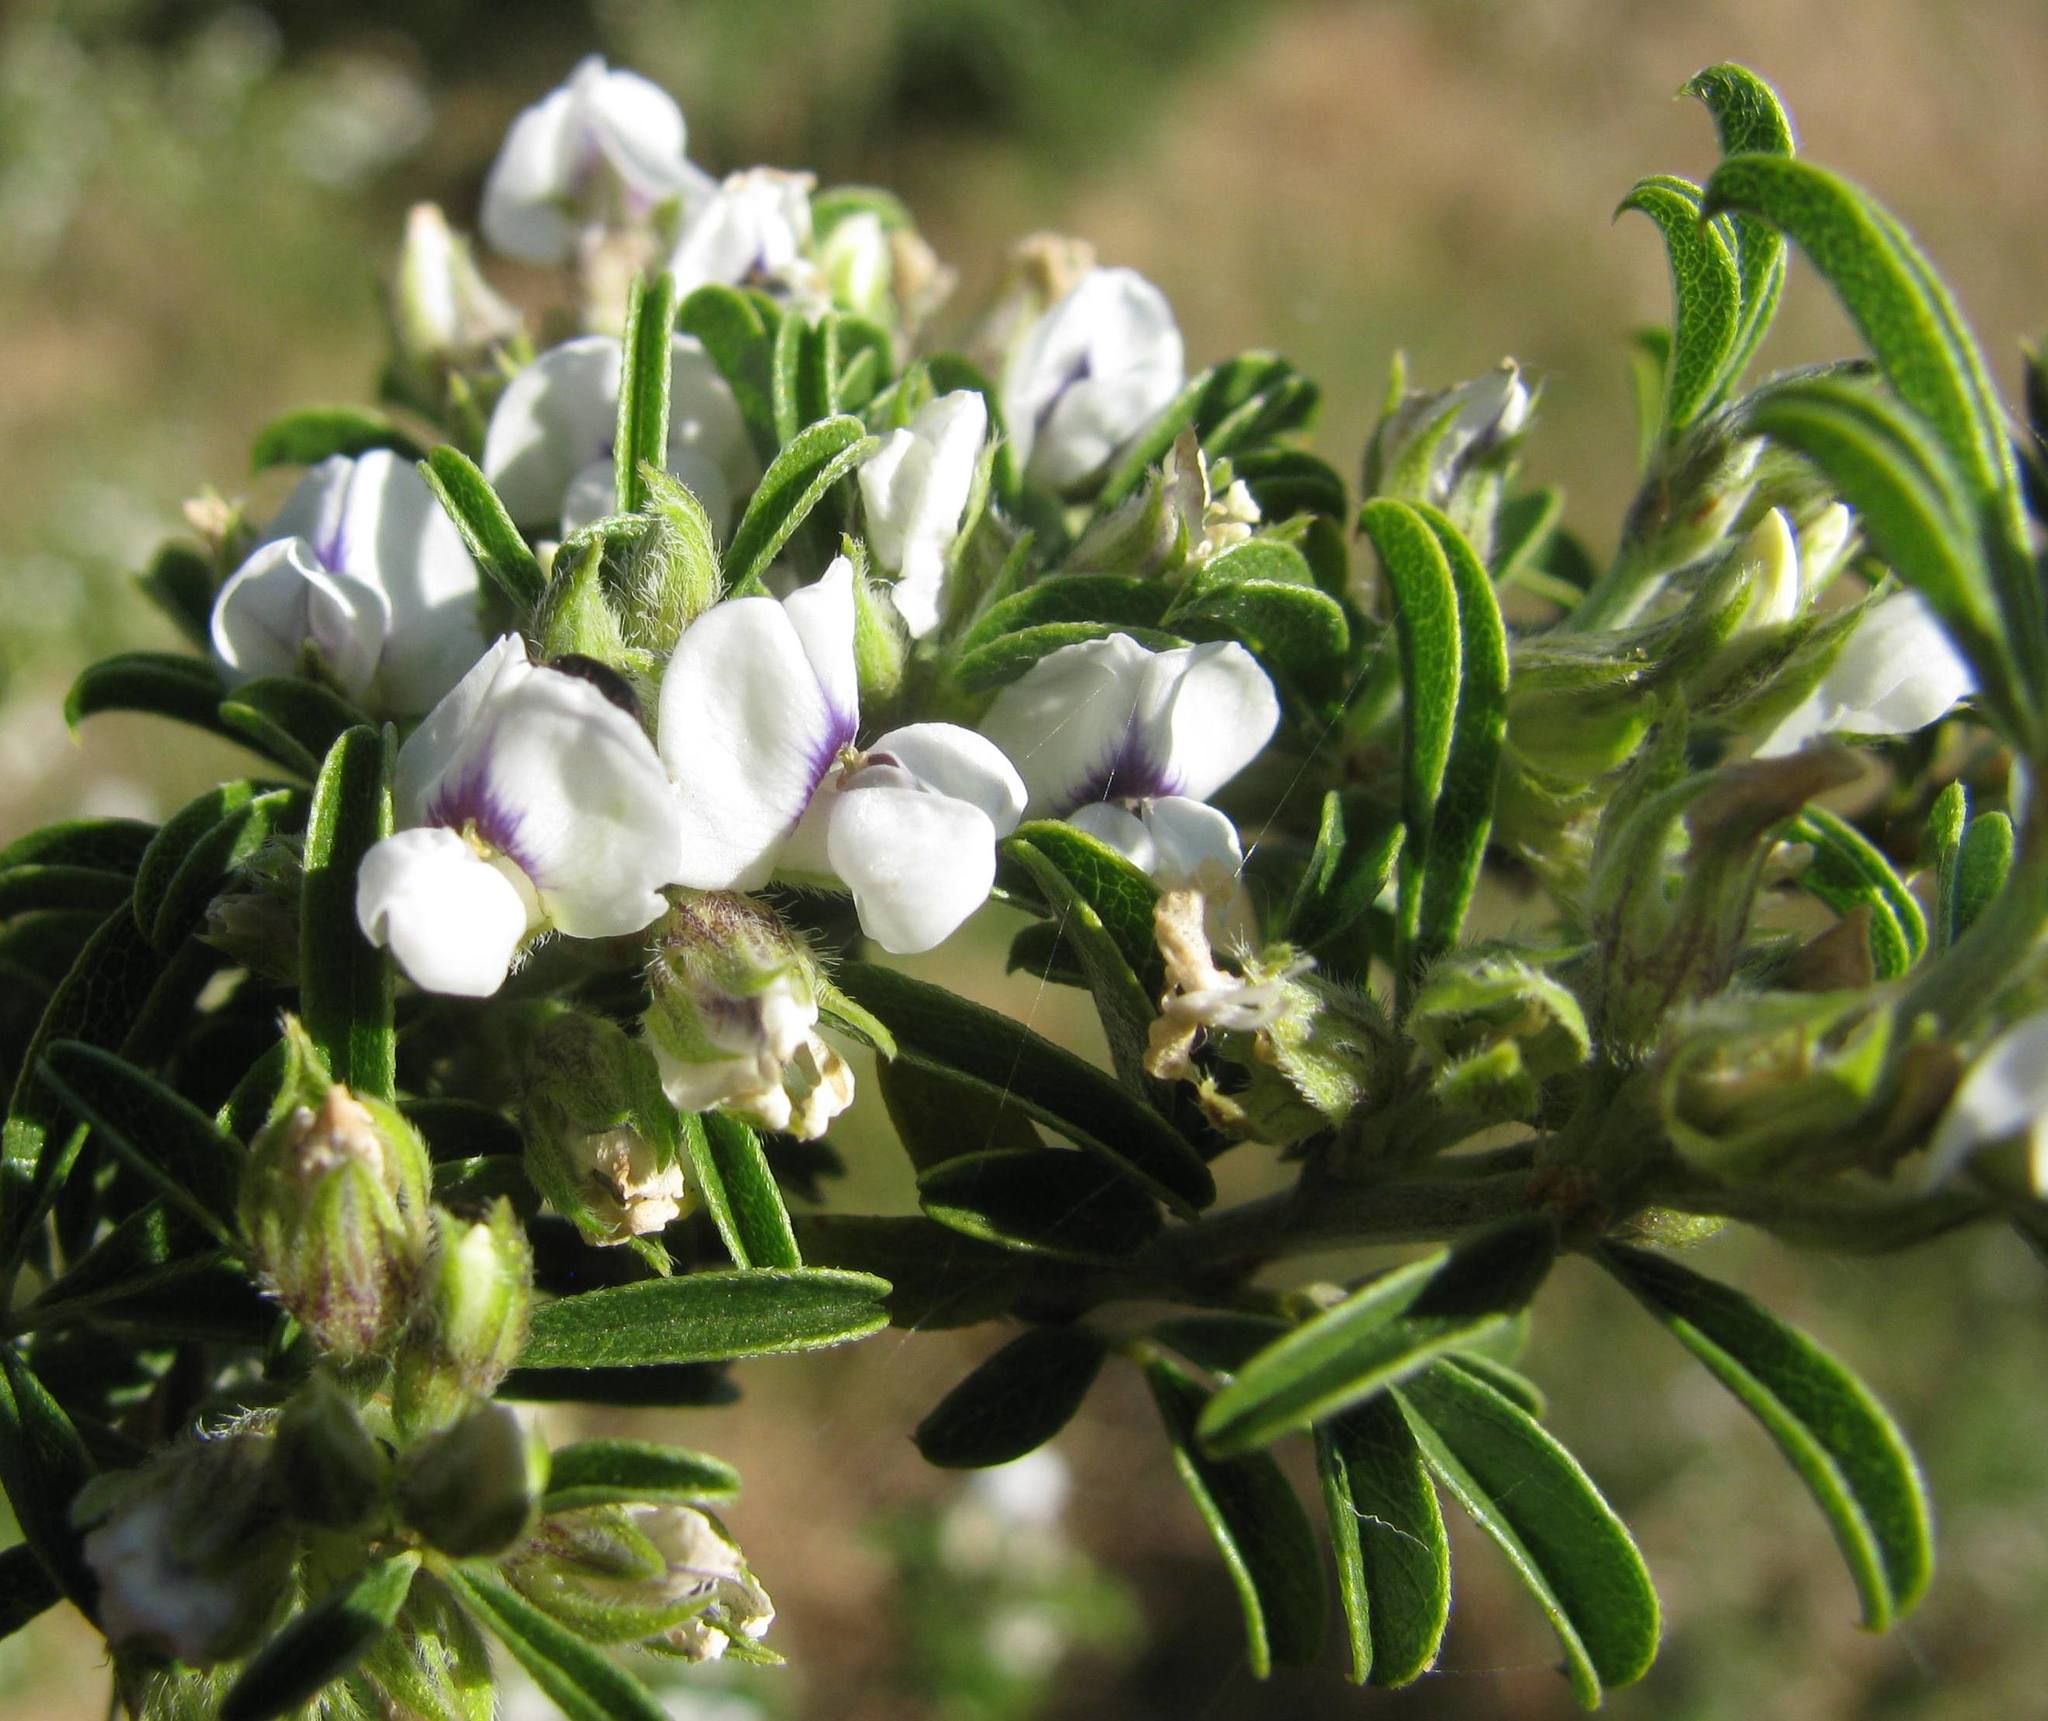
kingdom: Plantae
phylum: Tracheophyta
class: Magnoliopsida
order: Fabales
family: Fabaceae
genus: Psoralea
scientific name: Psoralea spissa
